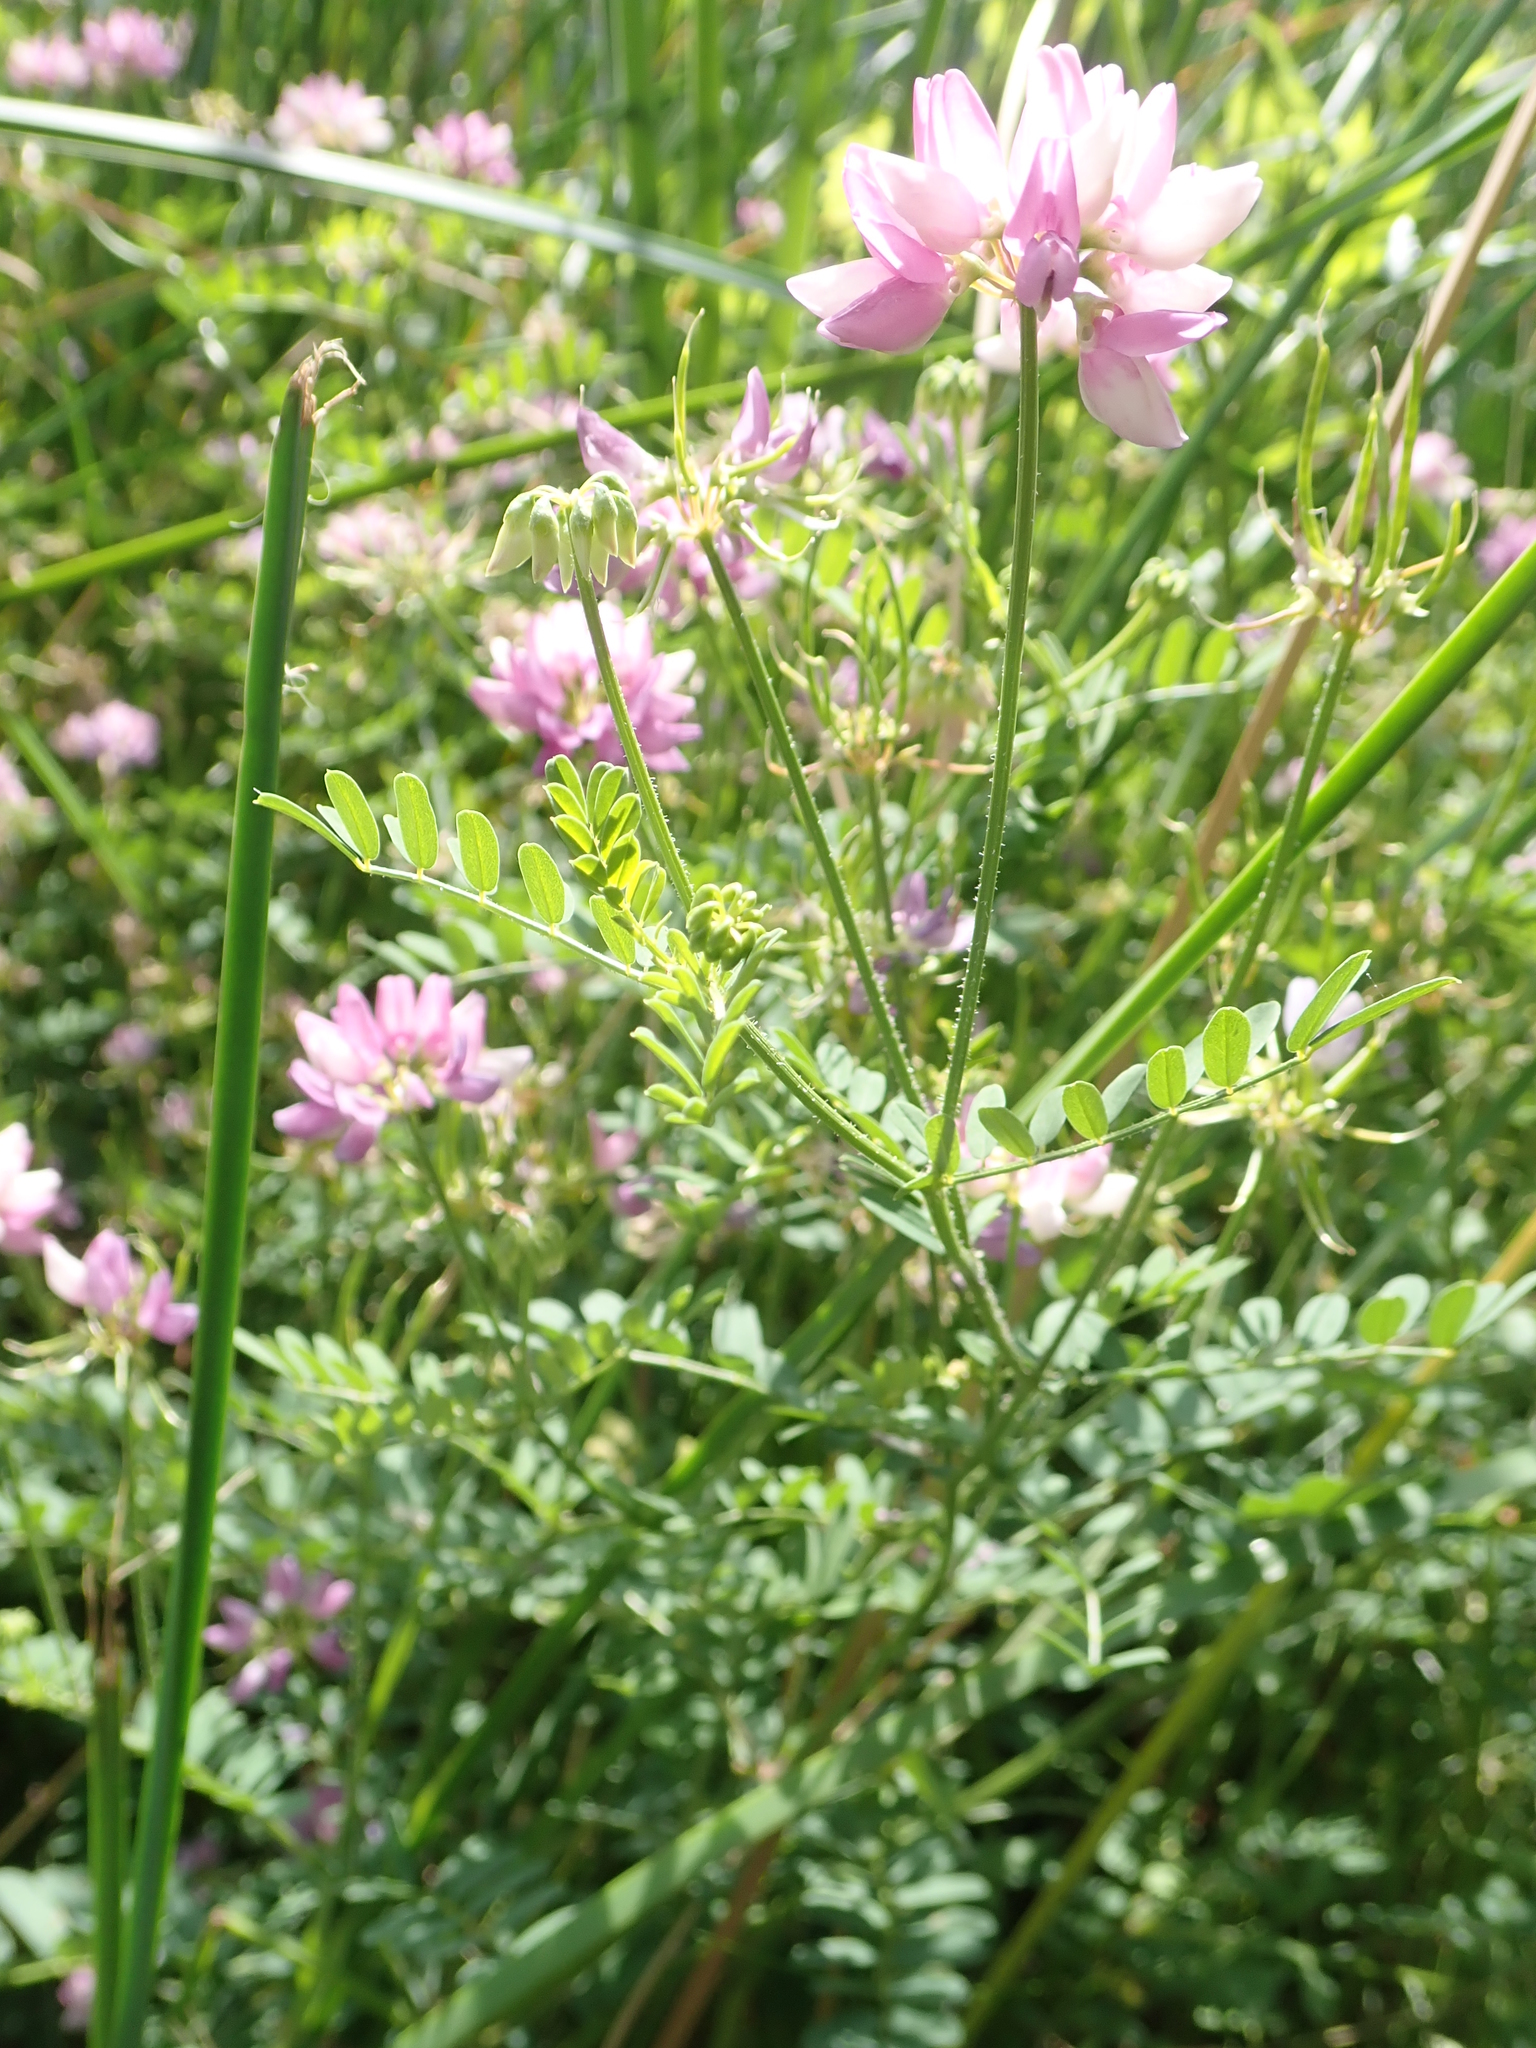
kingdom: Plantae
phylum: Tracheophyta
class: Magnoliopsida
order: Fabales
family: Fabaceae
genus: Coronilla
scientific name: Coronilla varia
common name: Crownvetch
